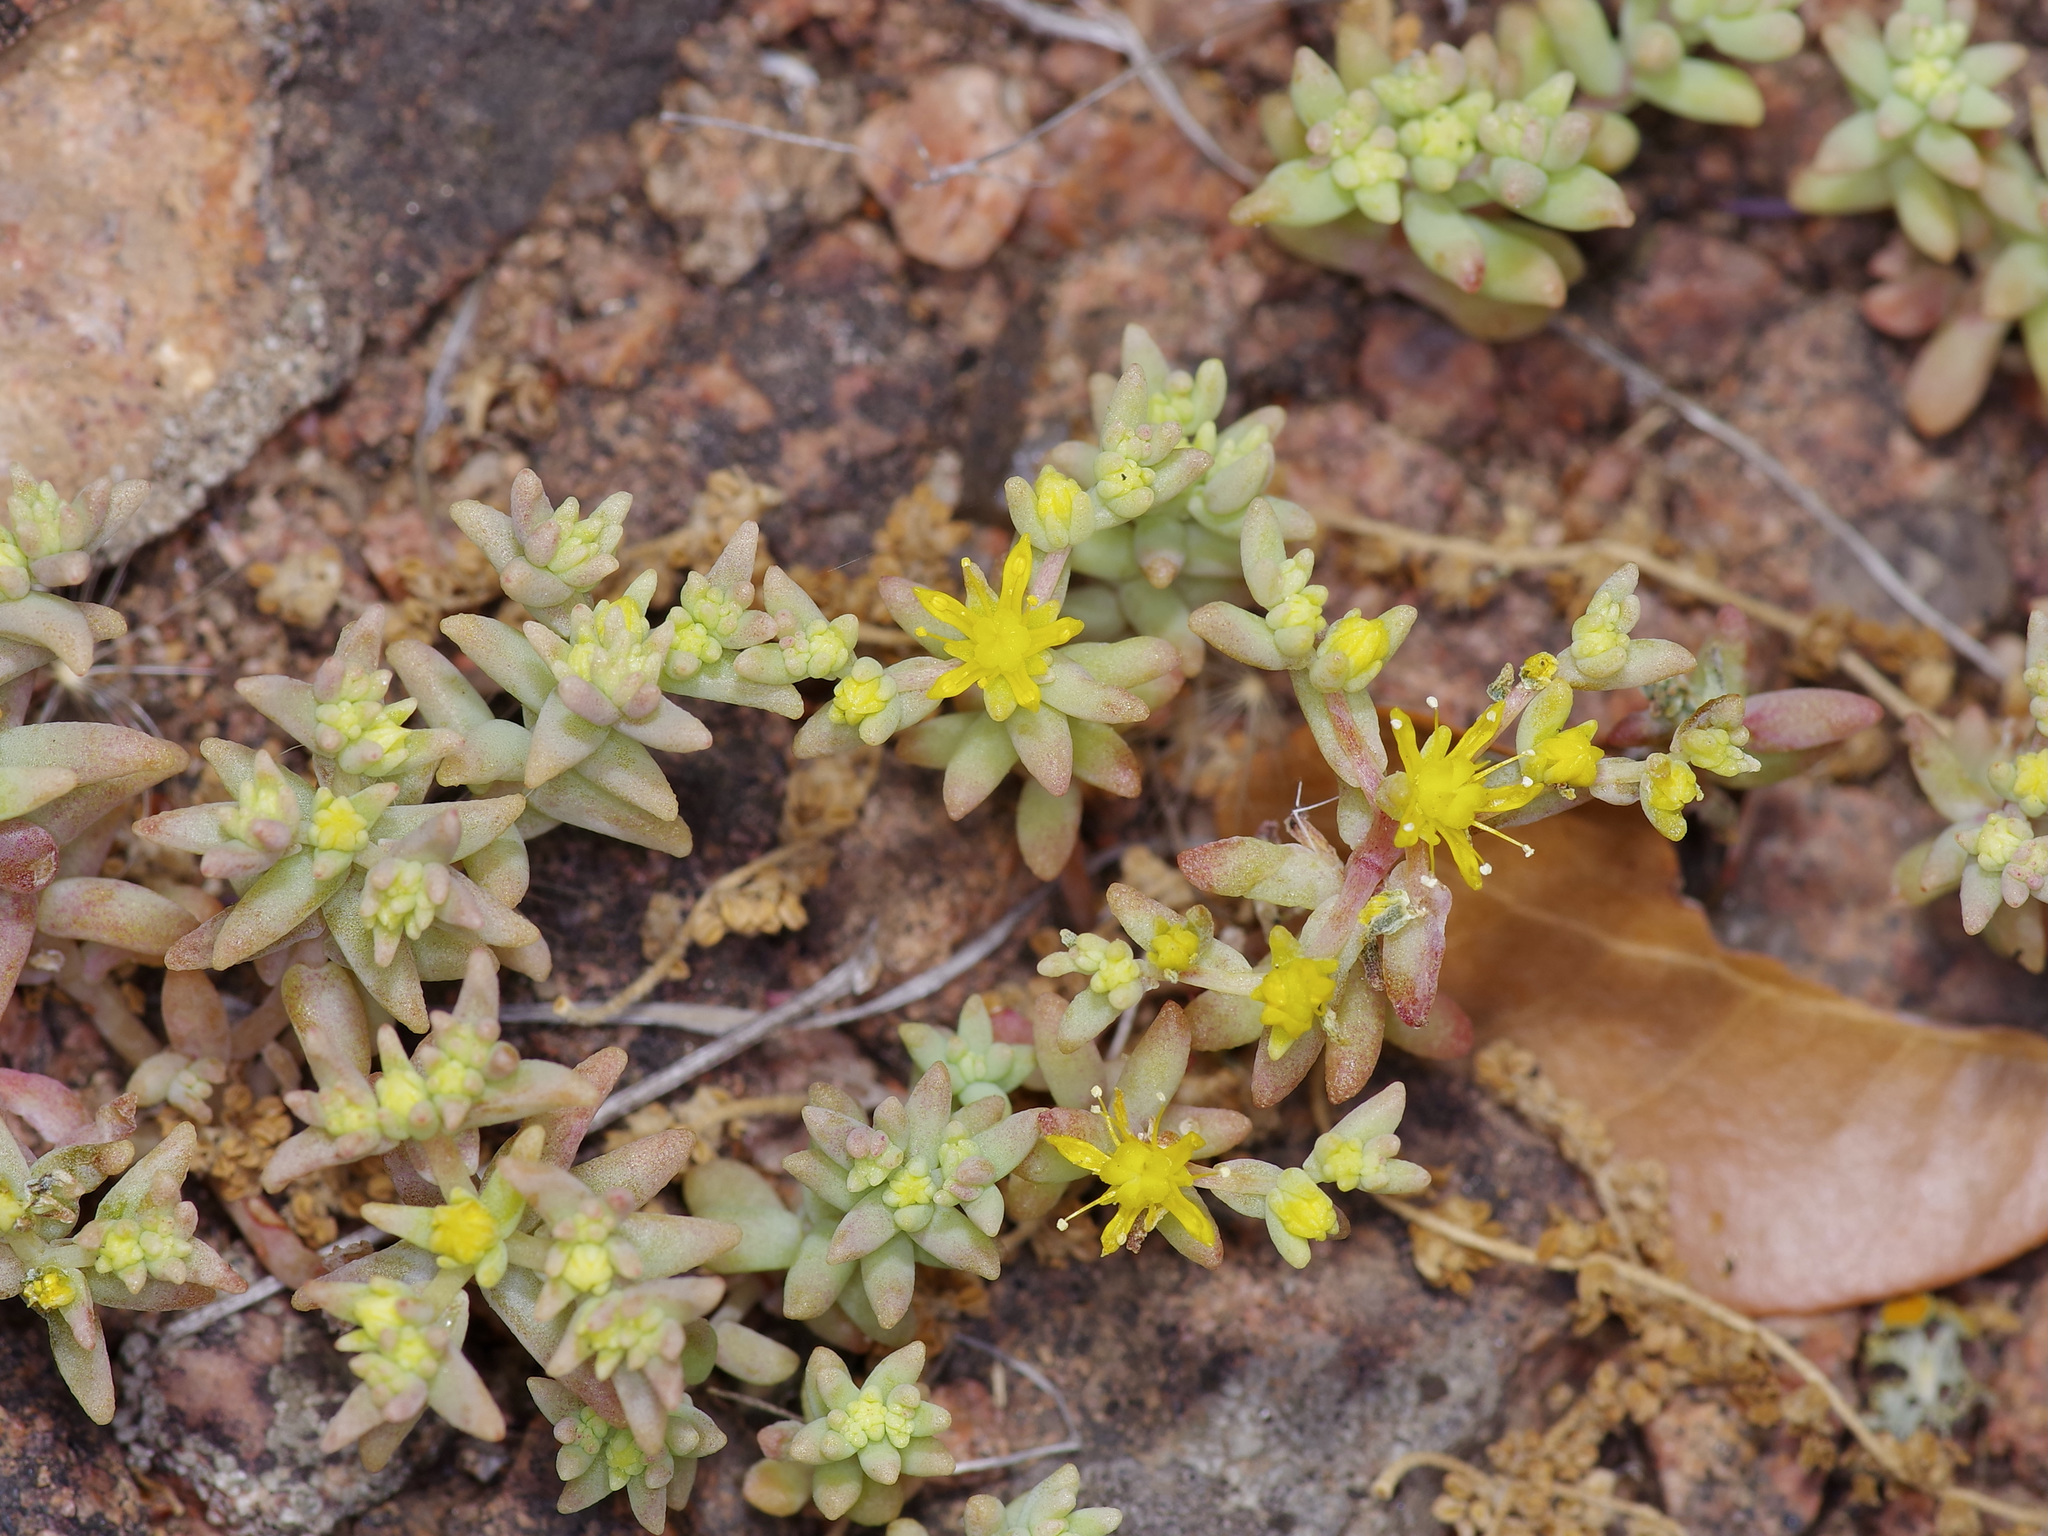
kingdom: Plantae
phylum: Tracheophyta
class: Magnoliopsida
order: Saxifragales
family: Crassulaceae
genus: Sedum
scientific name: Sedum nuttallii
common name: Yellow stonecrop
